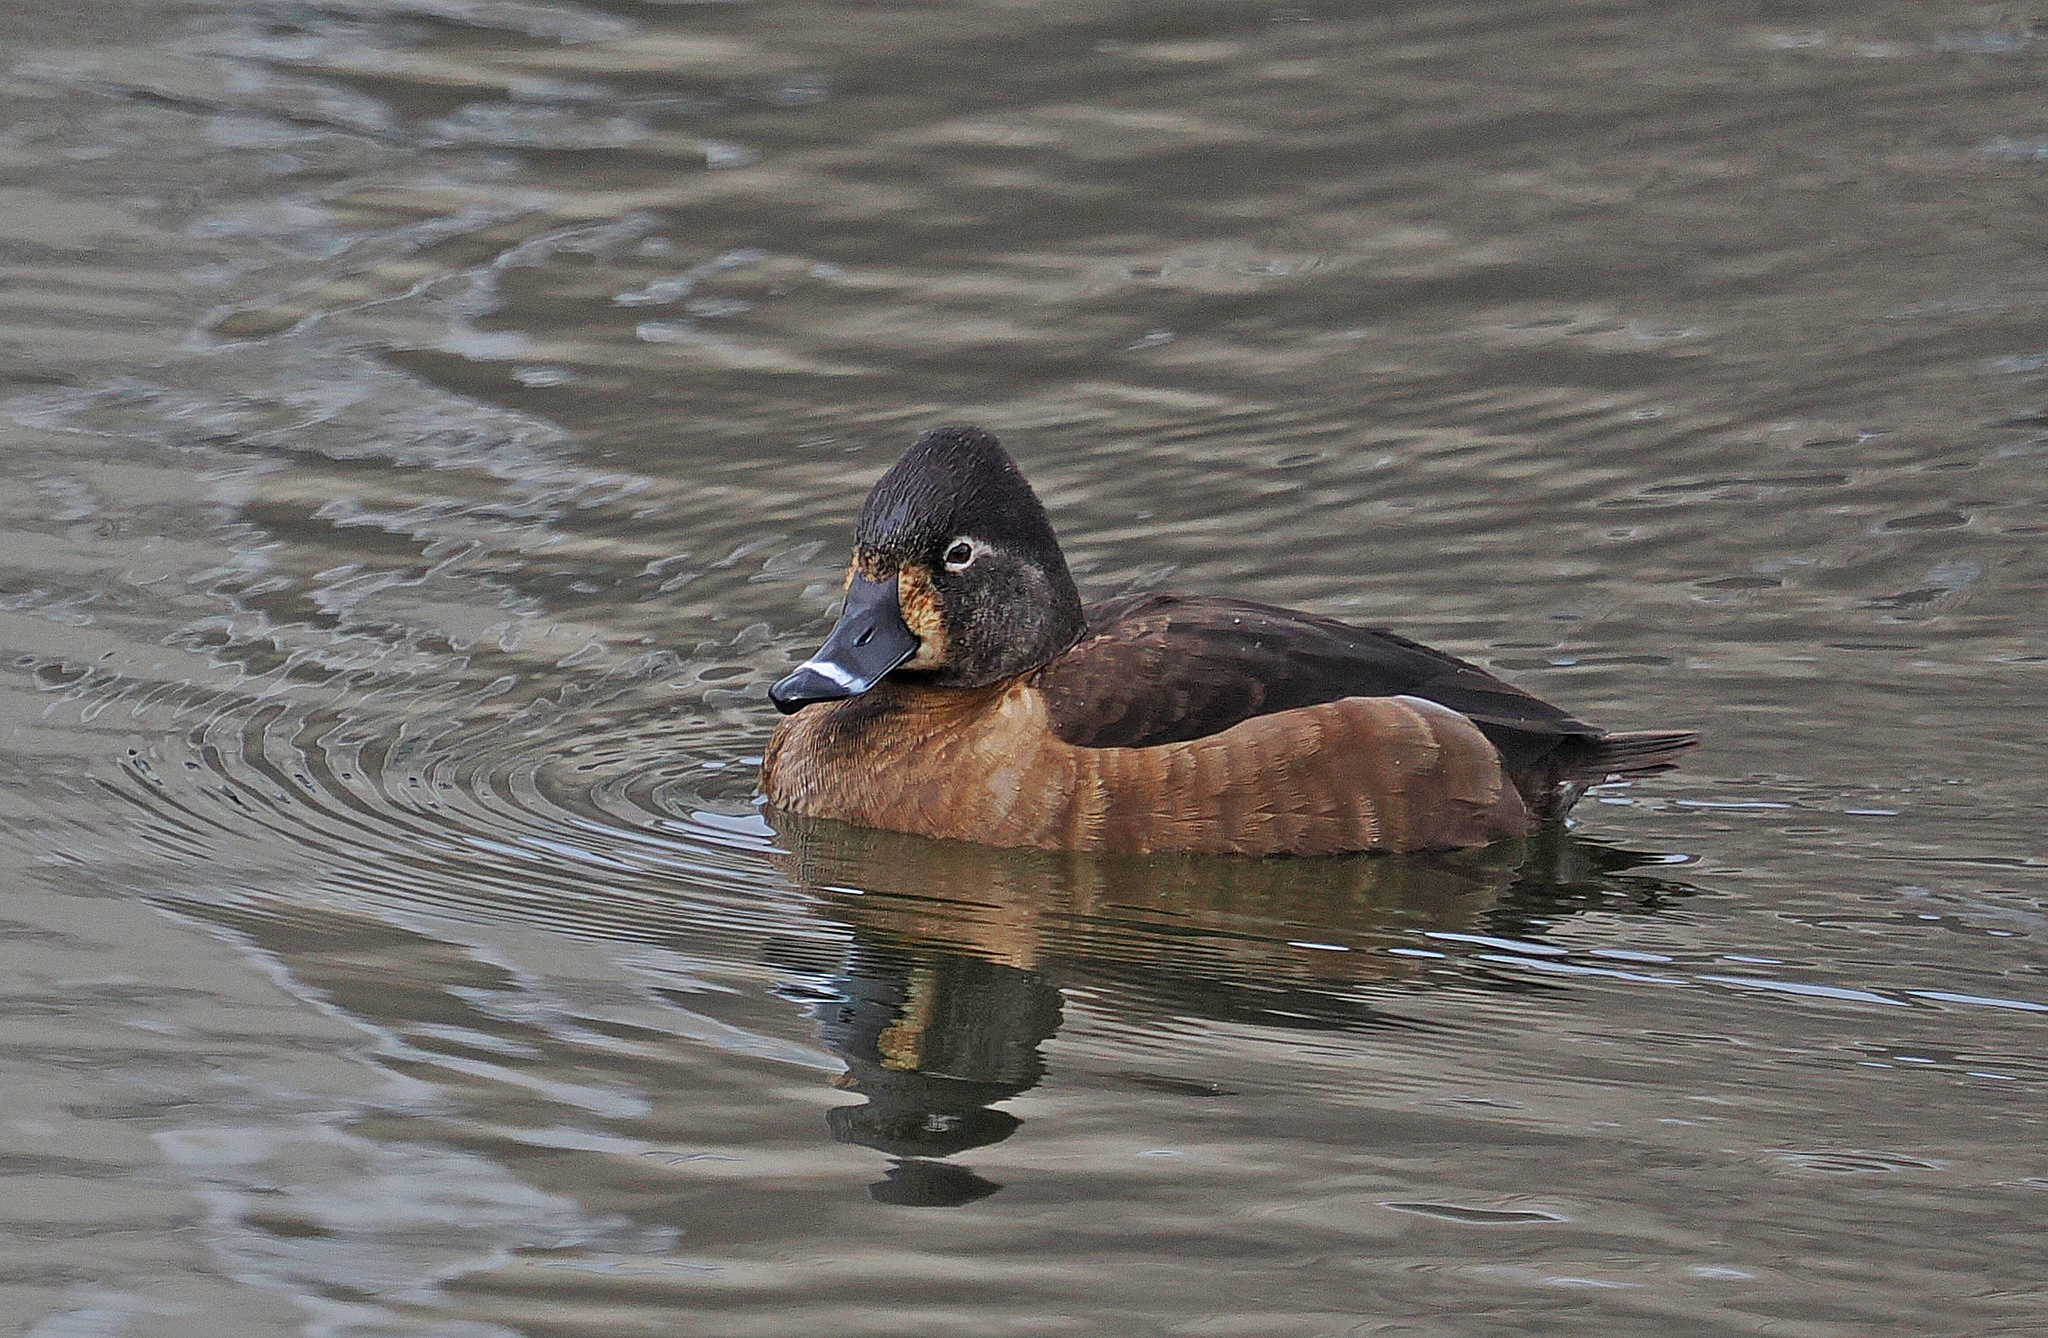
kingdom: Animalia
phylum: Chordata
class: Aves
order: Anseriformes
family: Anatidae
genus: Aythya
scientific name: Aythya collaris
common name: Ring-necked duck
